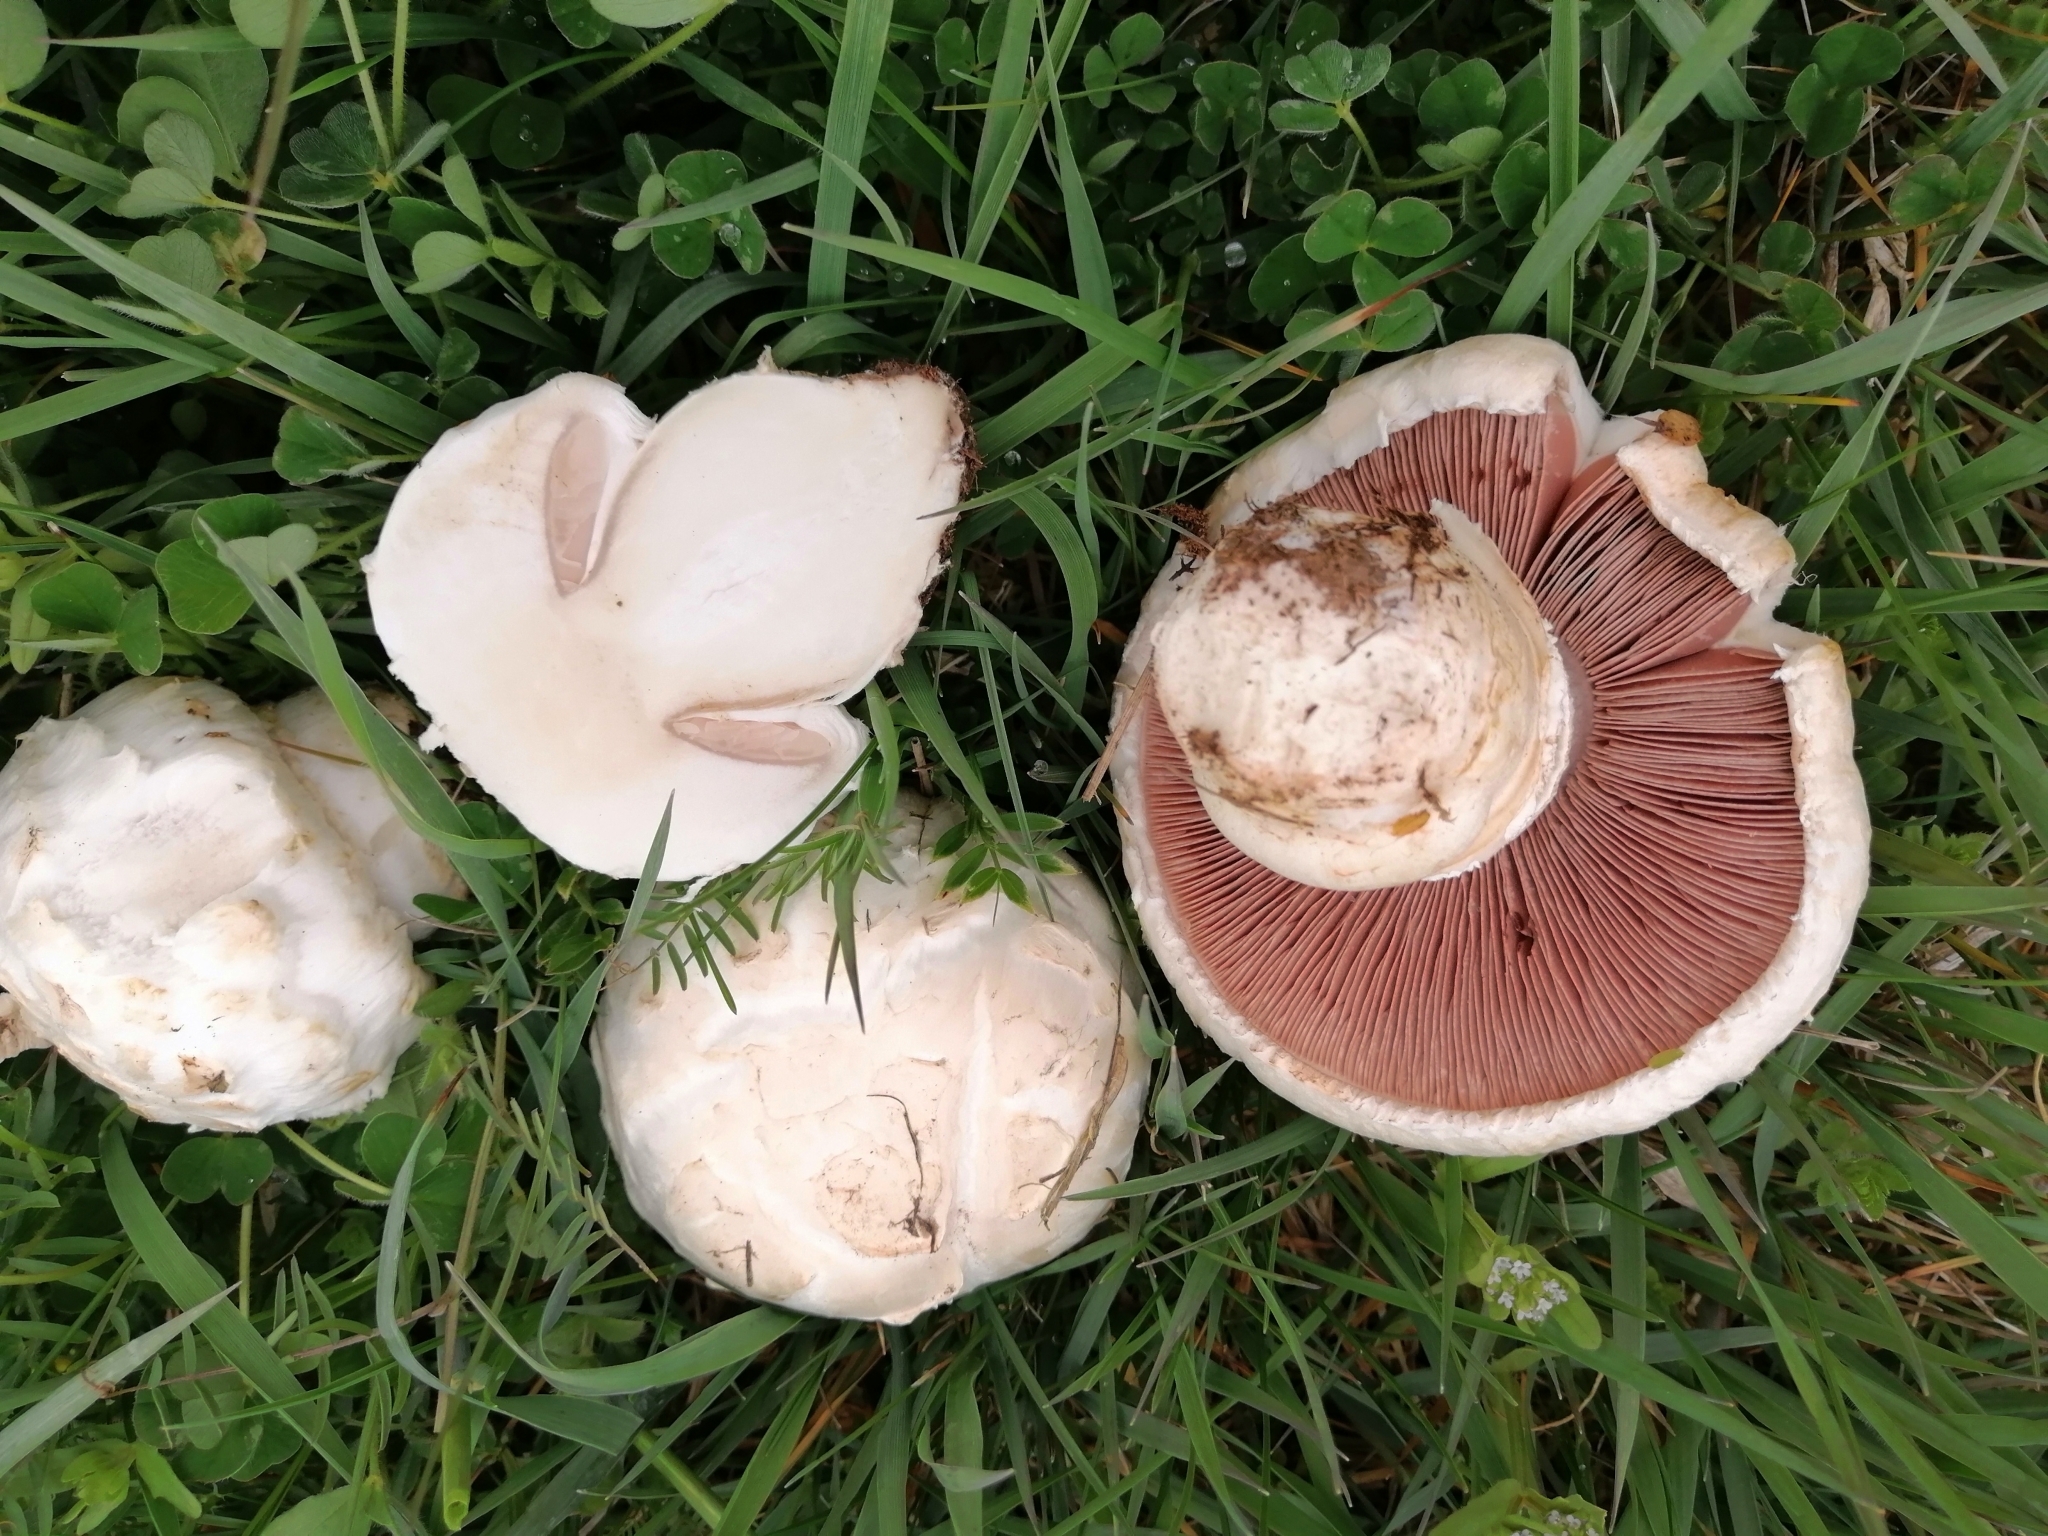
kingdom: Fungi
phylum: Basidiomycota
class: Agaricomycetes
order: Agaricales
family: Agaricaceae
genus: Agaricus
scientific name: Agaricus bernardii
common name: Salty mushroom
